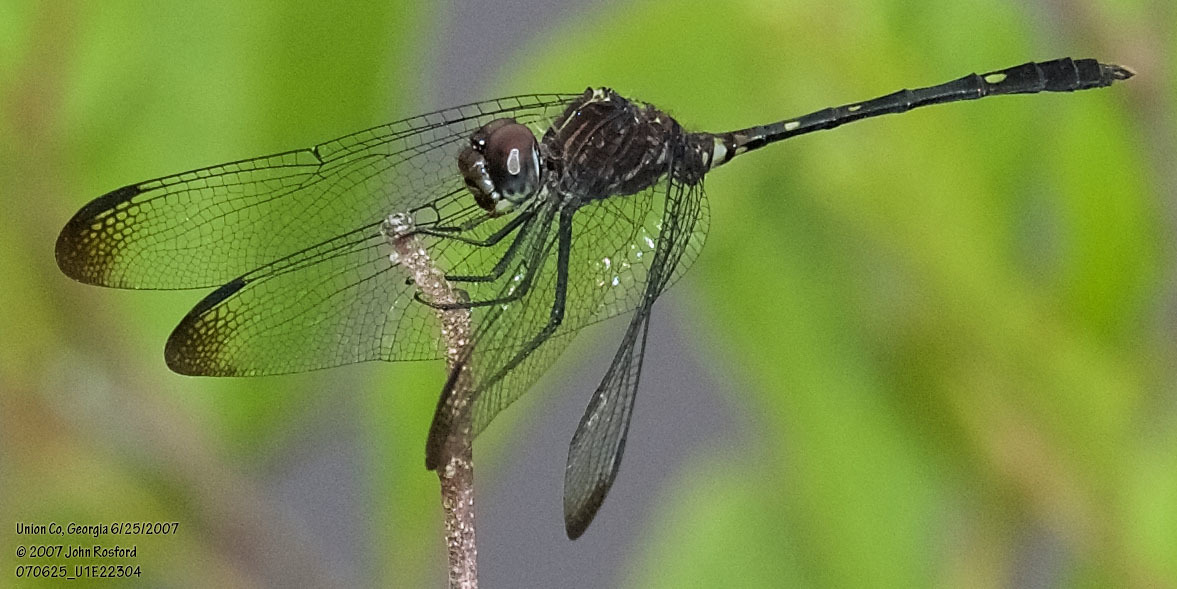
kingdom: Animalia
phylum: Arthropoda
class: Insecta
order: Odonata
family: Libellulidae
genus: Dythemis
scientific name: Dythemis velox
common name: Swift setwing
